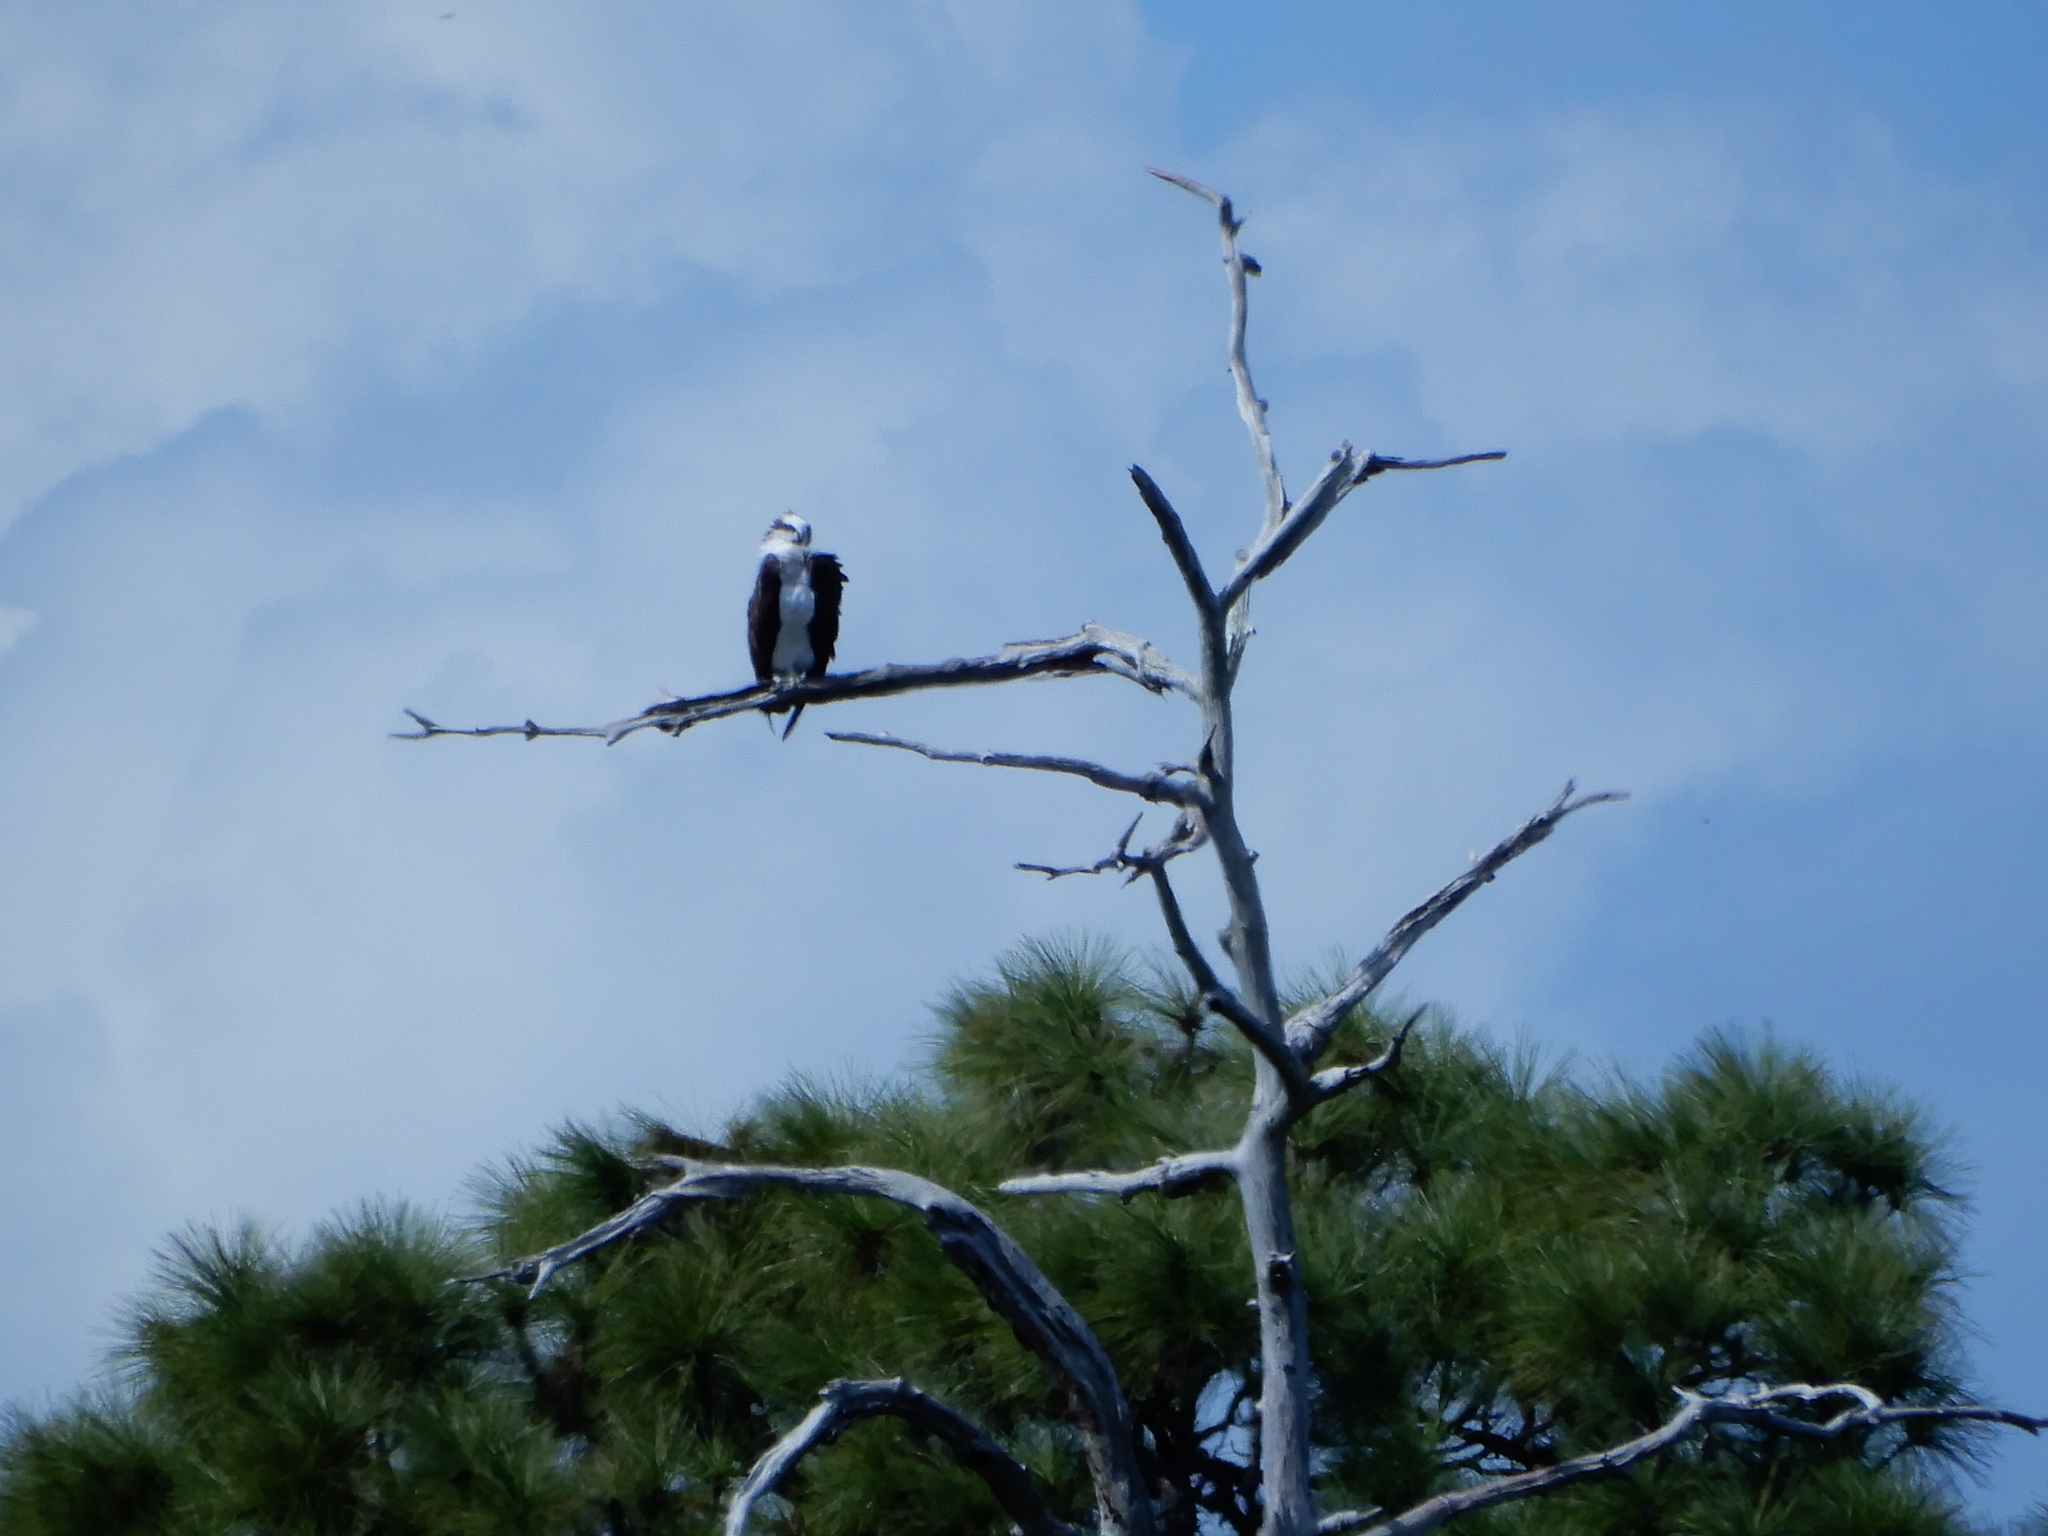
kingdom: Animalia
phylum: Chordata
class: Aves
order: Accipitriformes
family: Pandionidae
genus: Pandion
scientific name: Pandion haliaetus
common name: Osprey
